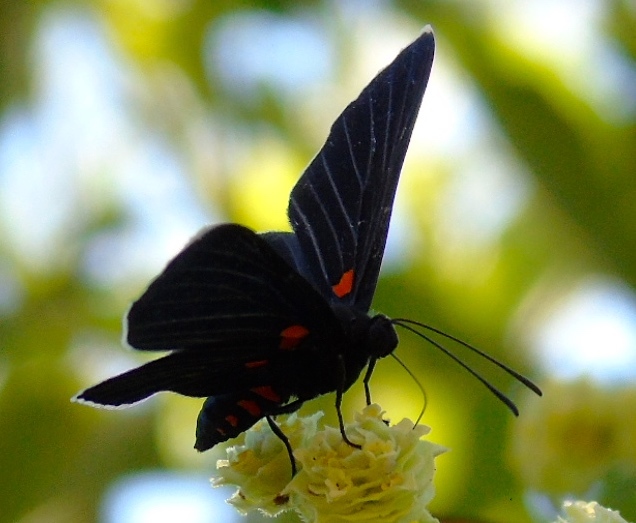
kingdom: Animalia
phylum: Arthropoda
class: Insecta
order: Lepidoptera
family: Lycaenidae
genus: Melanis
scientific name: Melanis
